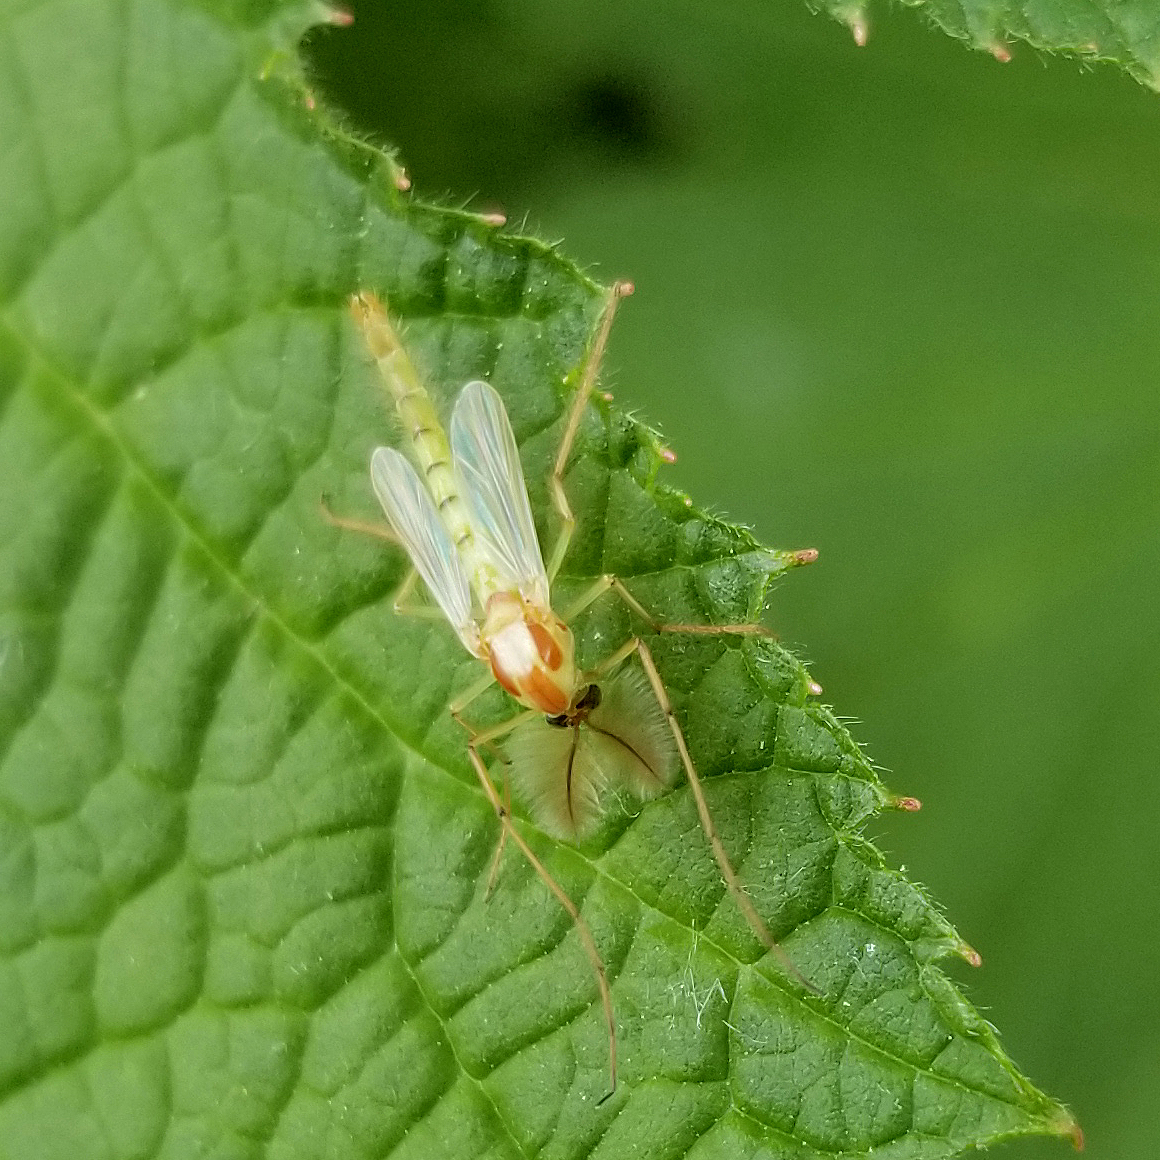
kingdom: Animalia
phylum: Arthropoda
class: Insecta
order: Diptera
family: Chironomidae
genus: Axarus
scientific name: Axarus
